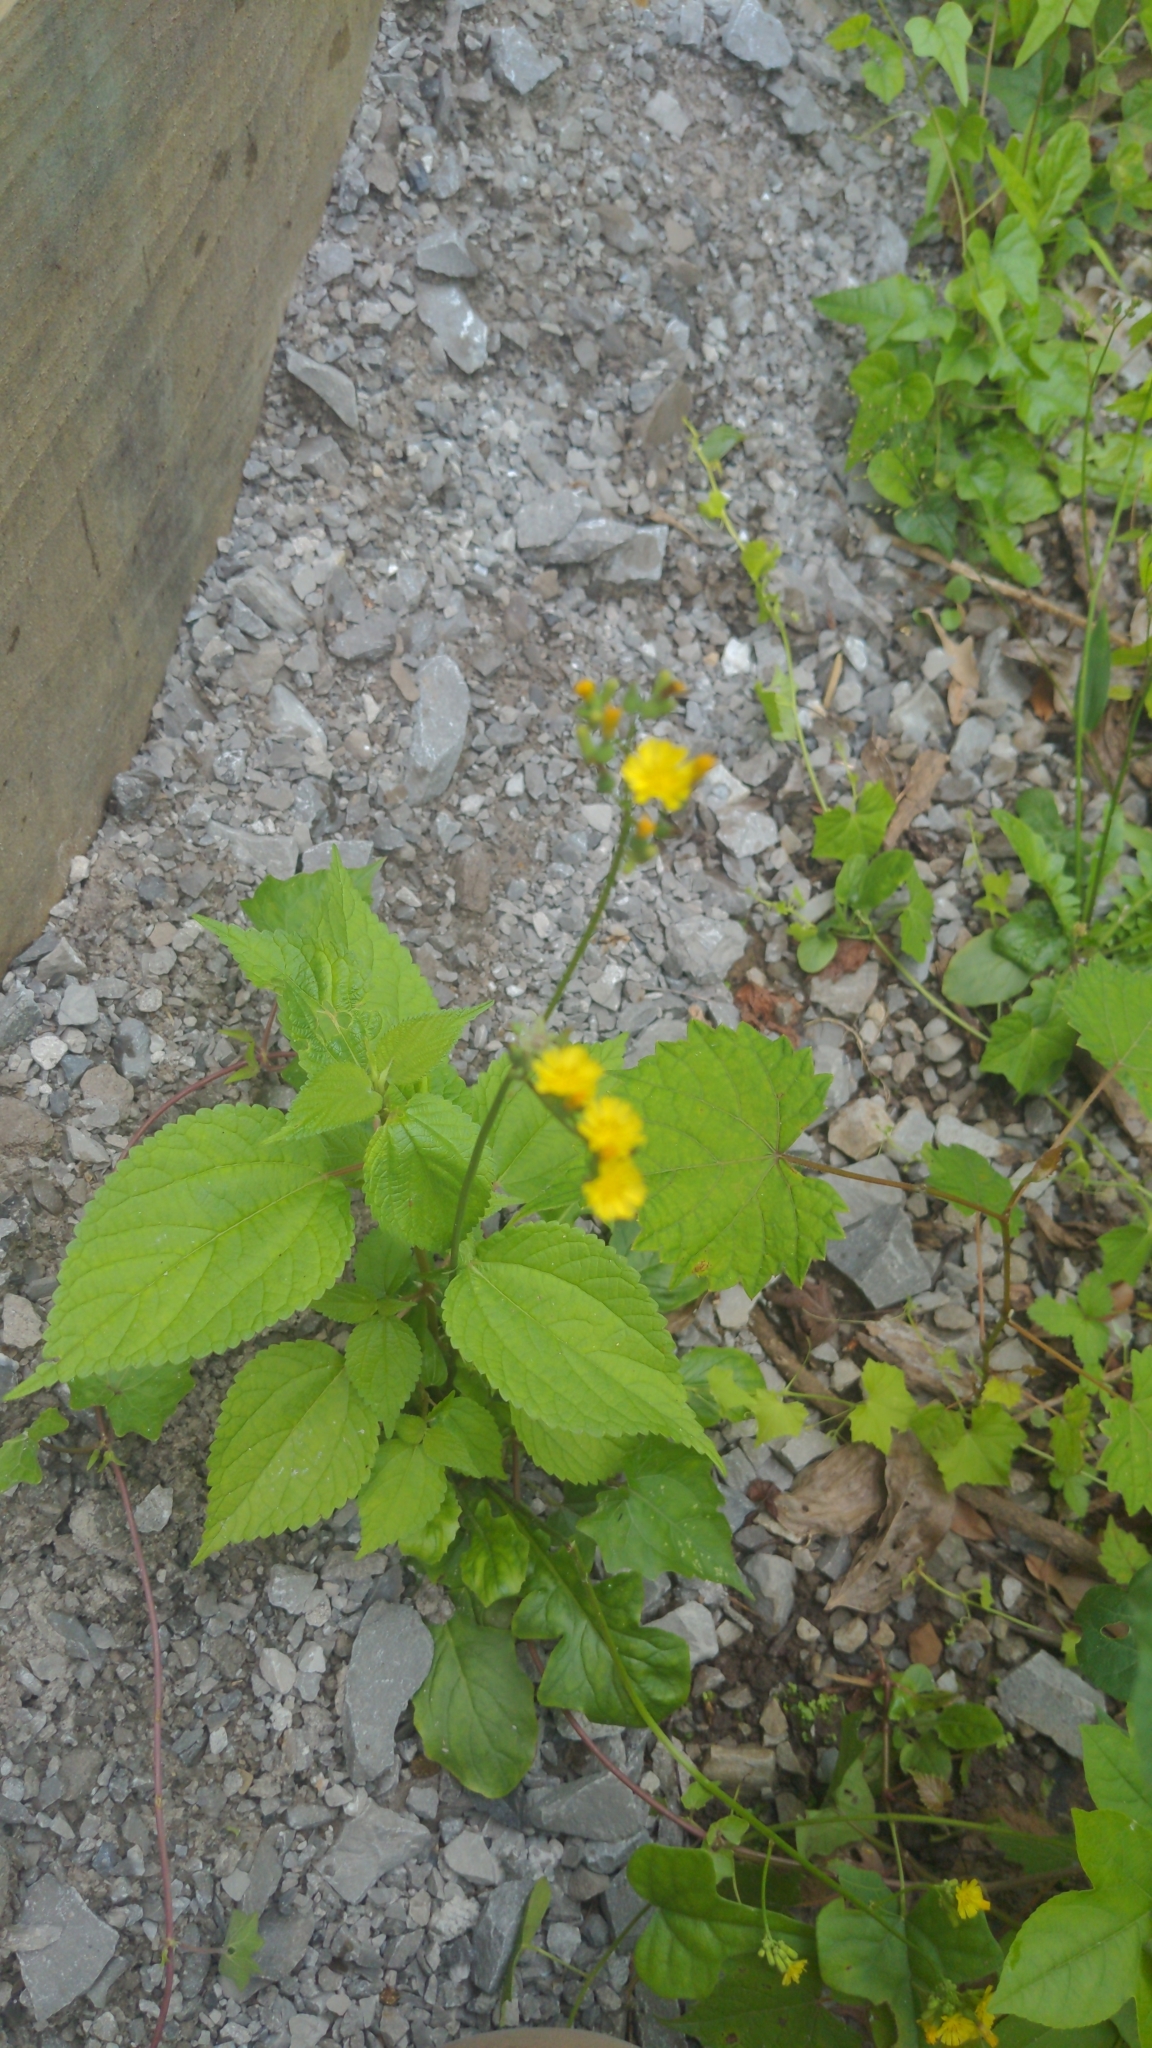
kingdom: Plantae
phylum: Tracheophyta
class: Magnoliopsida
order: Asterales
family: Asteraceae
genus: Youngia
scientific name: Youngia japonica
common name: Oriental false hawksbeard
